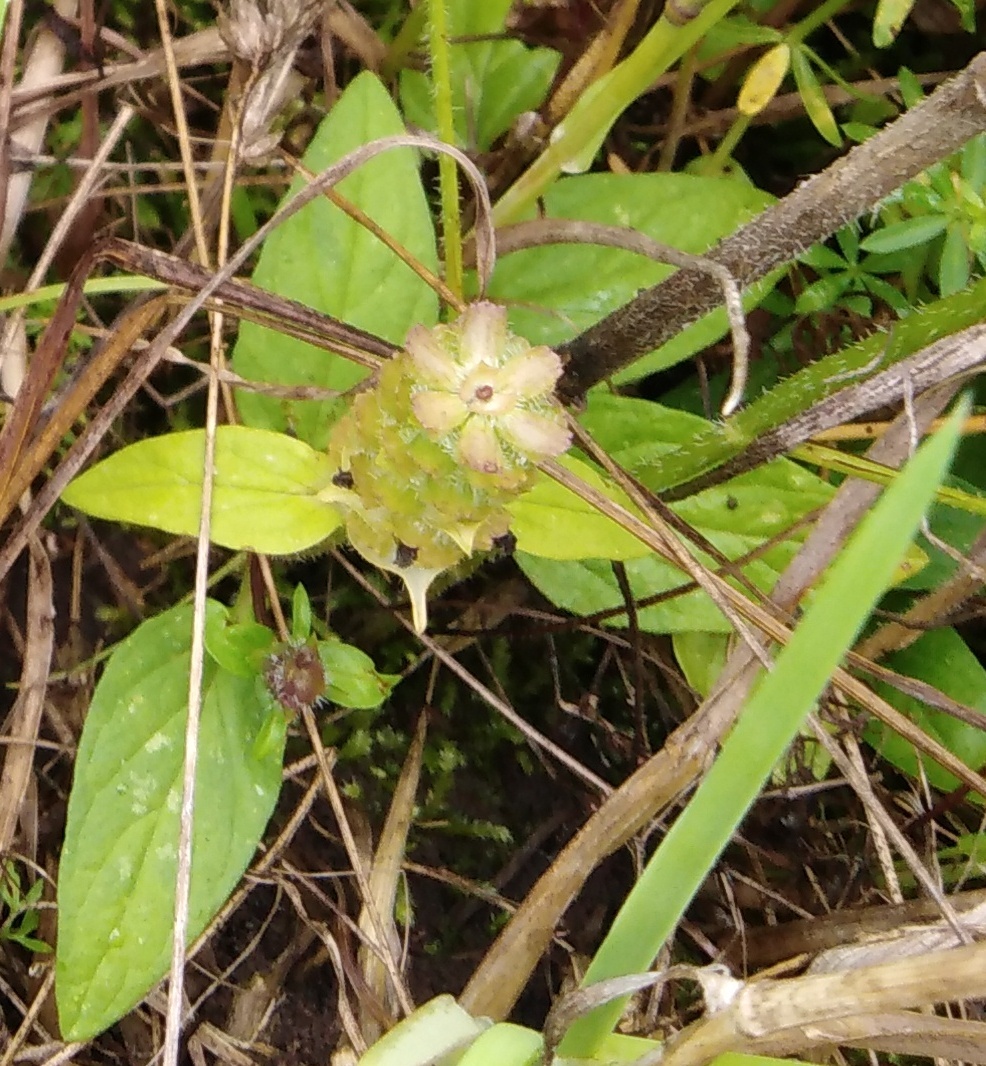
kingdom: Plantae
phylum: Tracheophyta
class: Magnoliopsida
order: Lamiales
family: Lamiaceae
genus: Prunella
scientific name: Prunella vulgaris
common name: Heal-all
